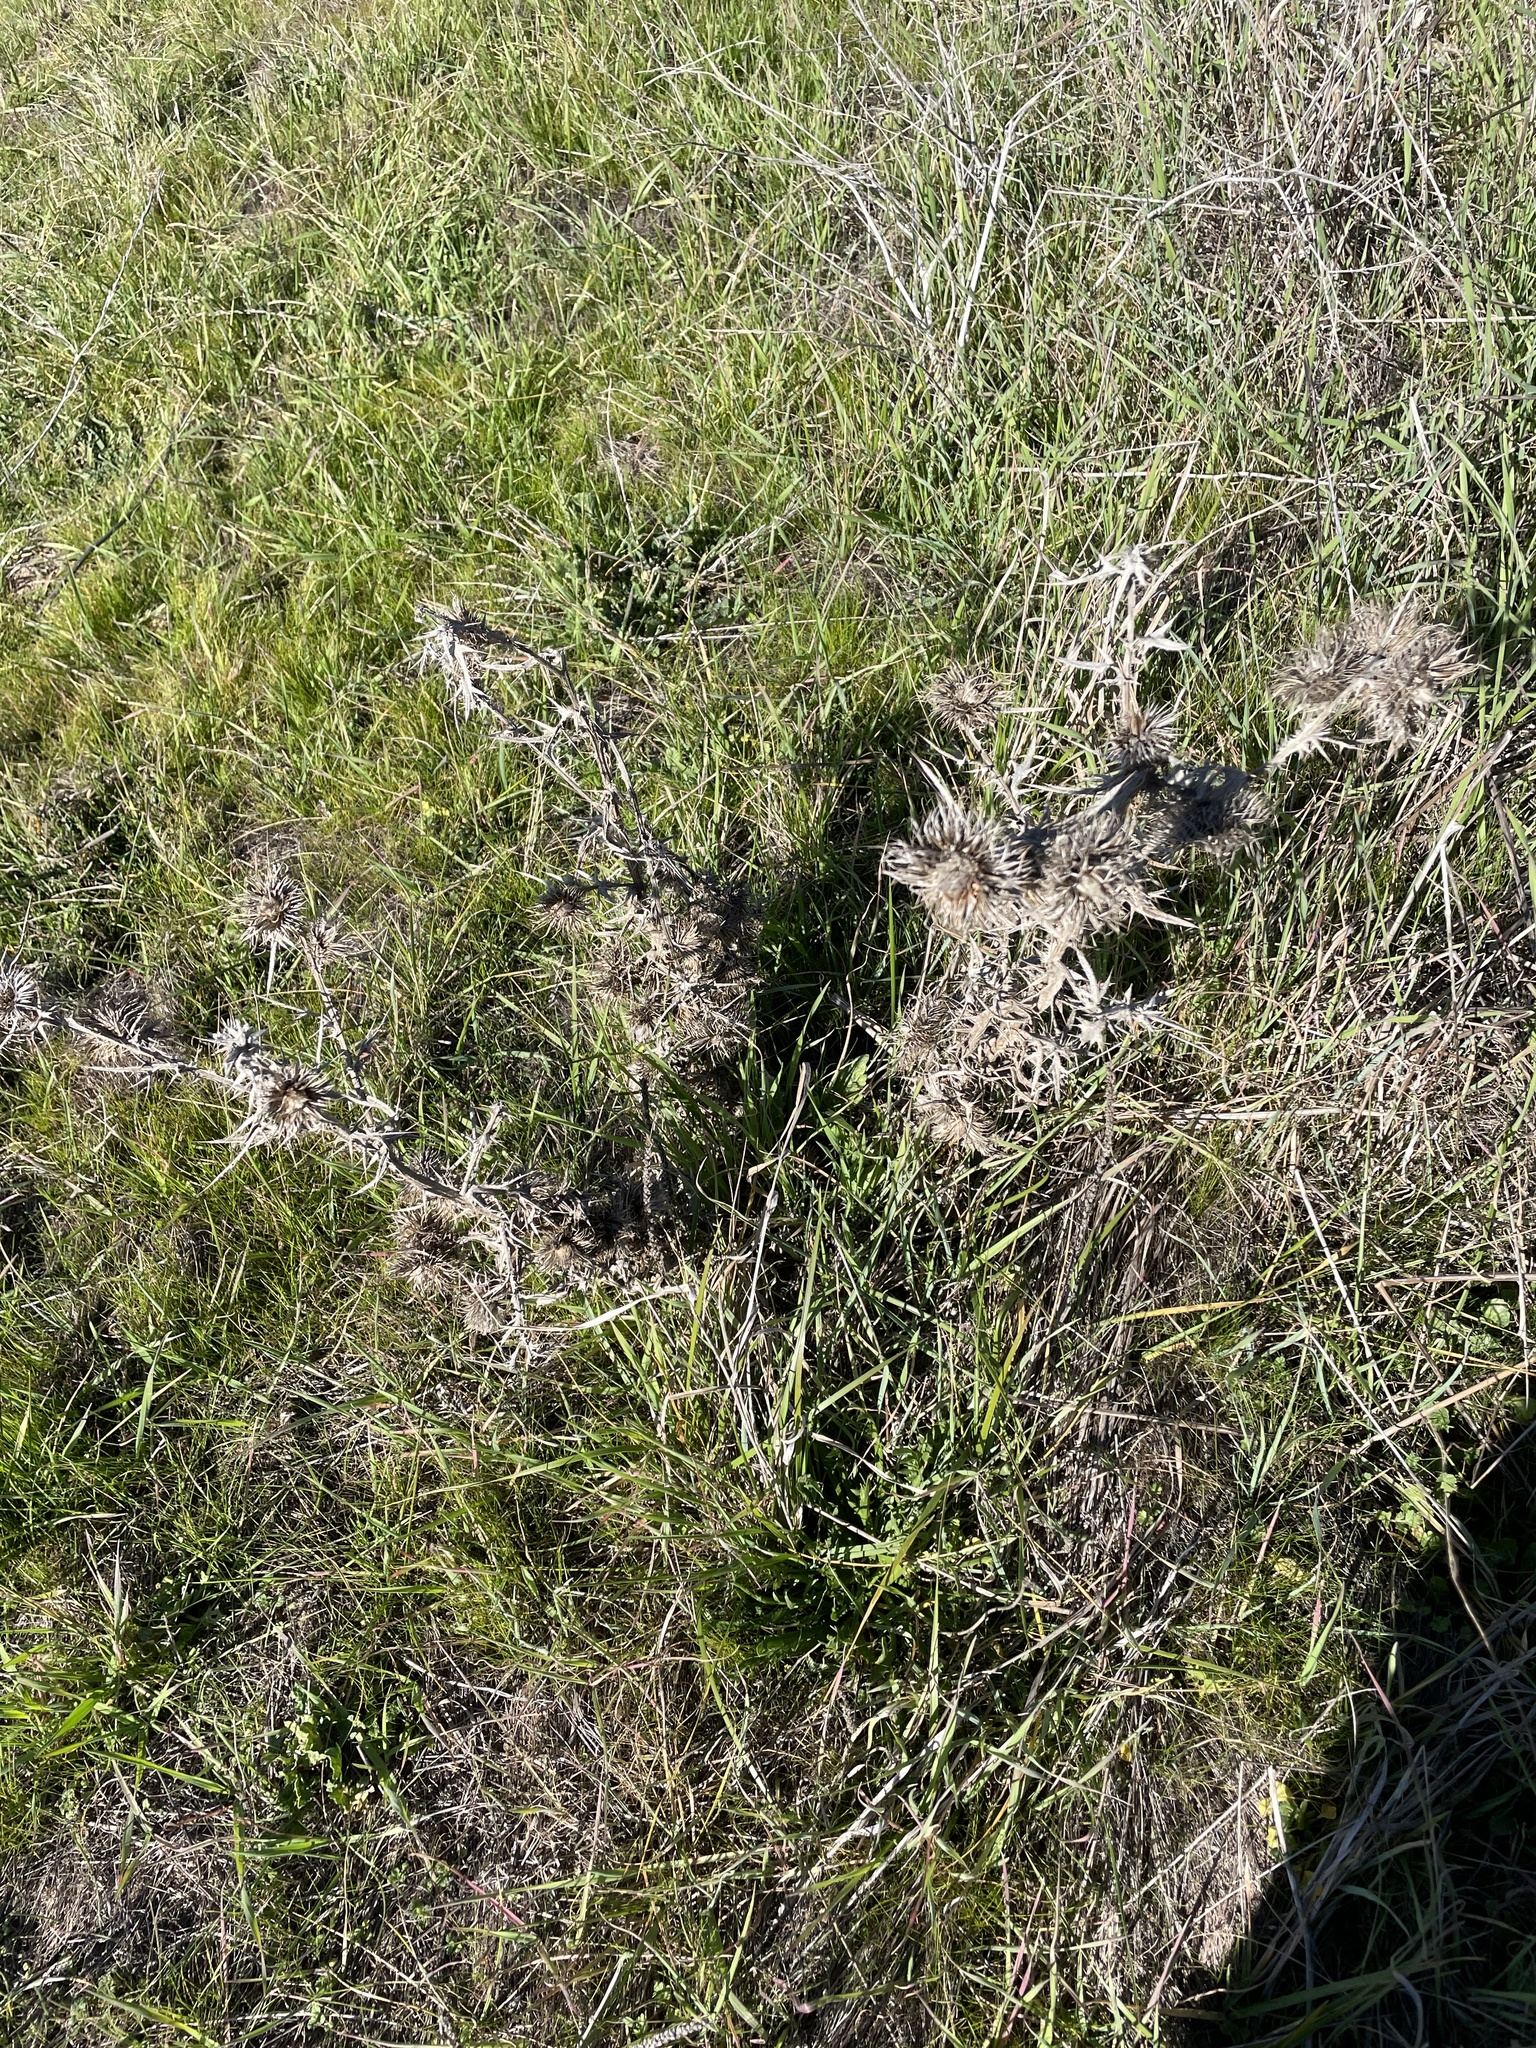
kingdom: Plantae
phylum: Tracheophyta
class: Magnoliopsida
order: Asterales
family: Asteraceae
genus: Cirsium
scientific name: Cirsium vulgare
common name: Bull thistle
